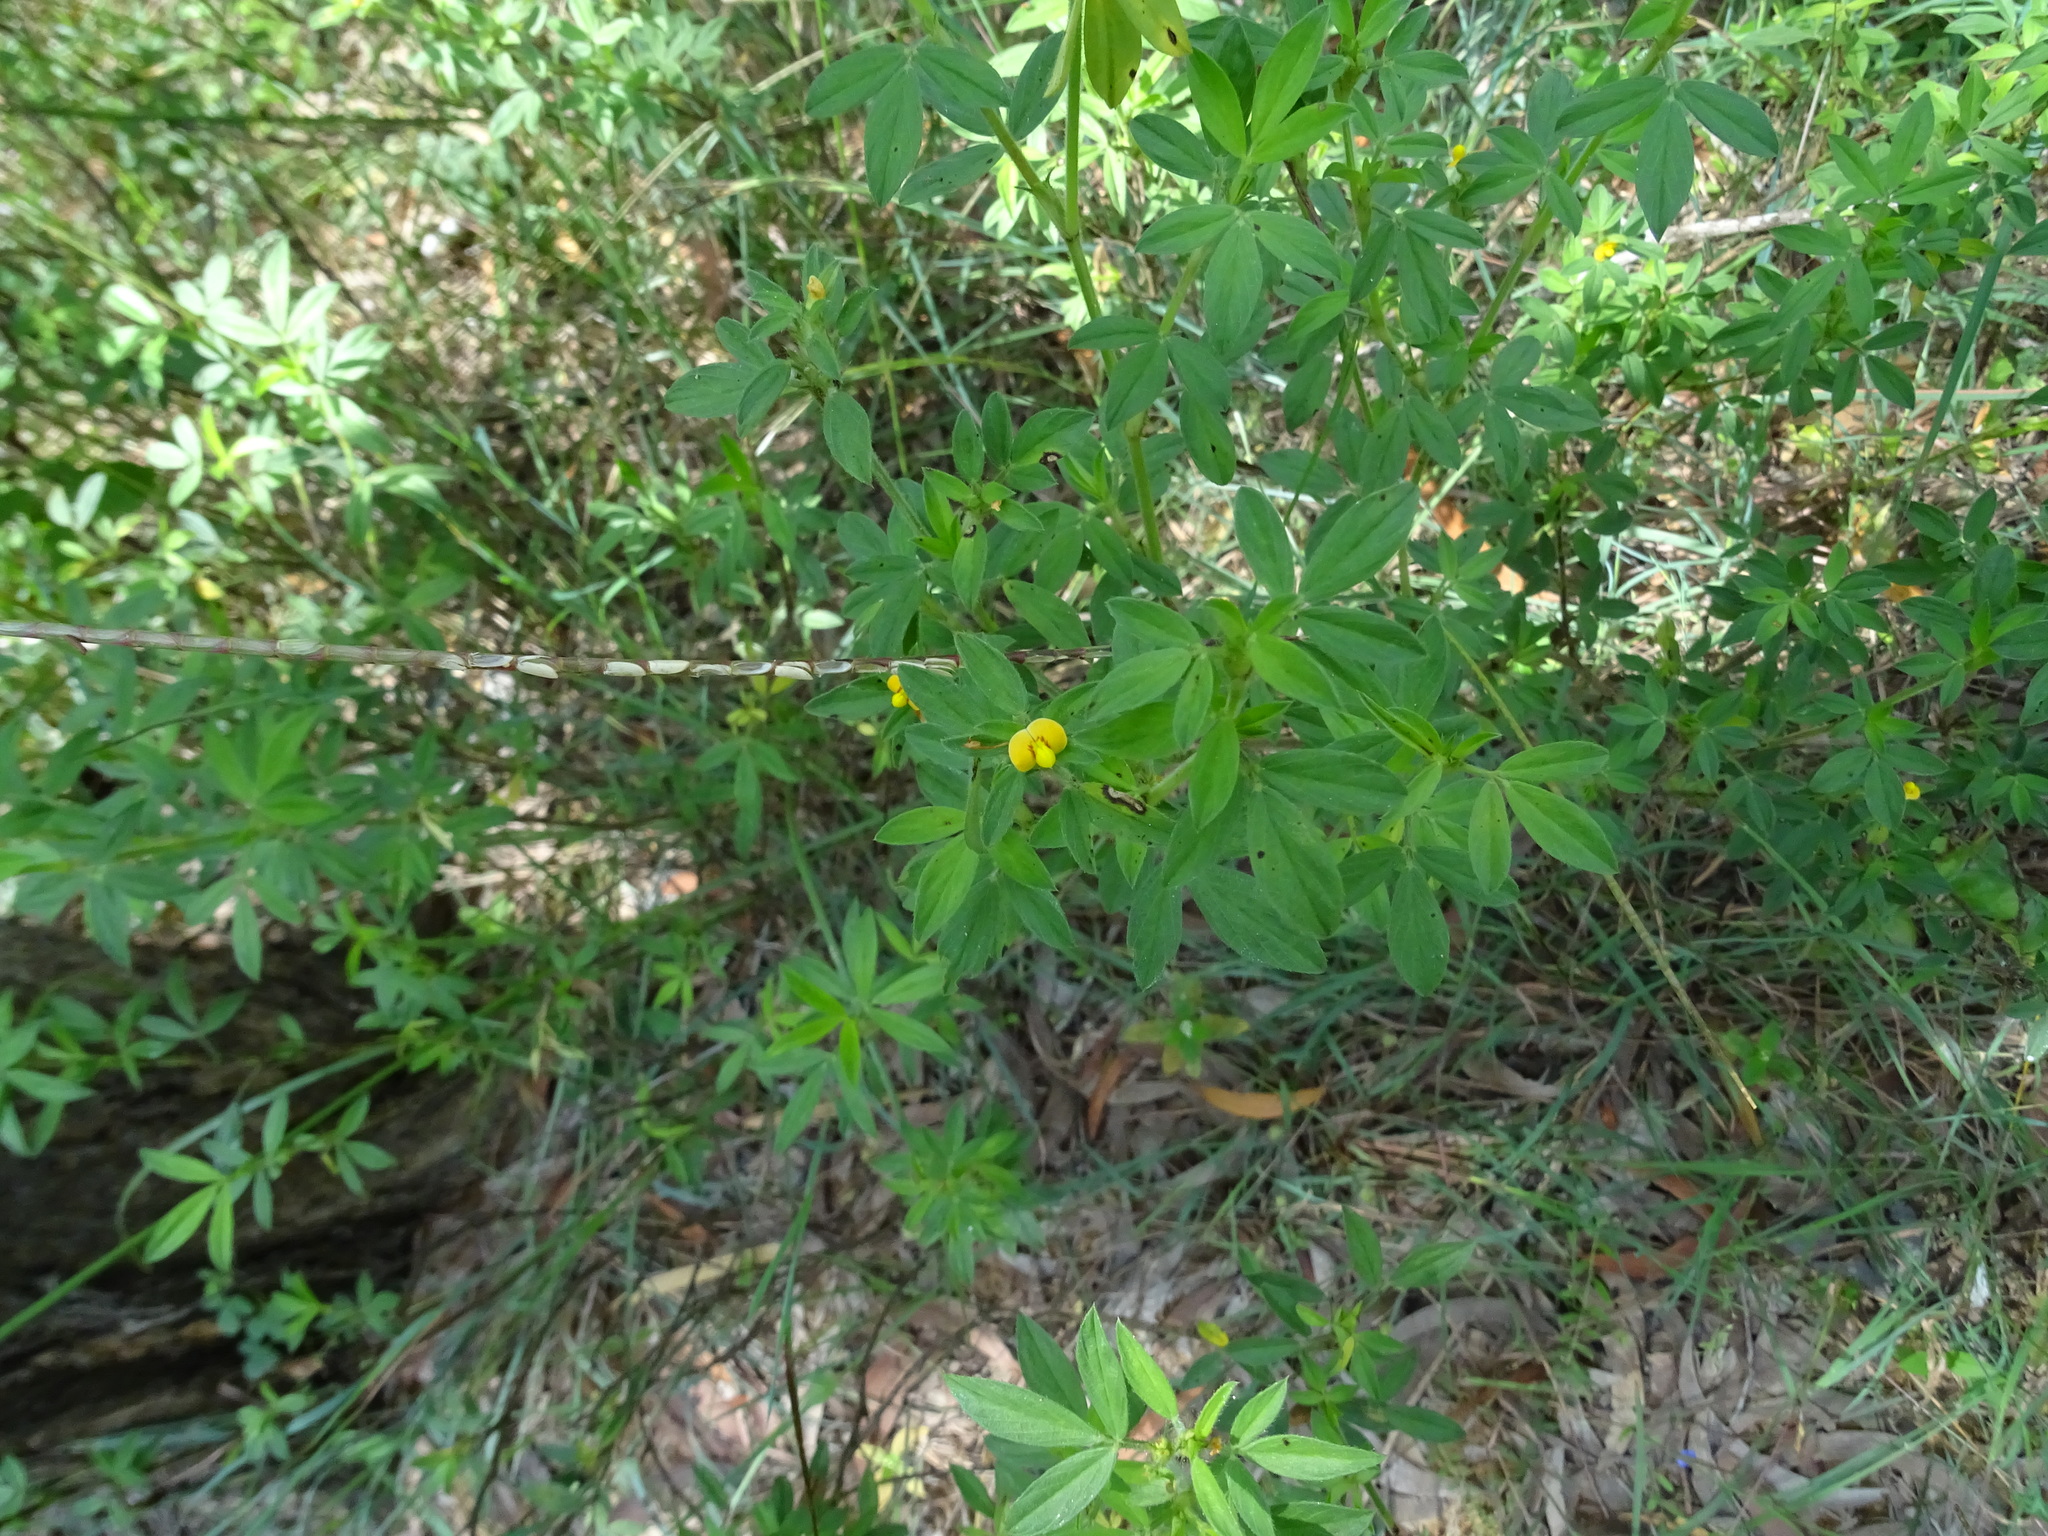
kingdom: Plantae
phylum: Tracheophyta
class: Magnoliopsida
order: Fabales
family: Fabaceae
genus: Stylosanthes
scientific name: Stylosanthes hamata
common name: Cheesytoes
